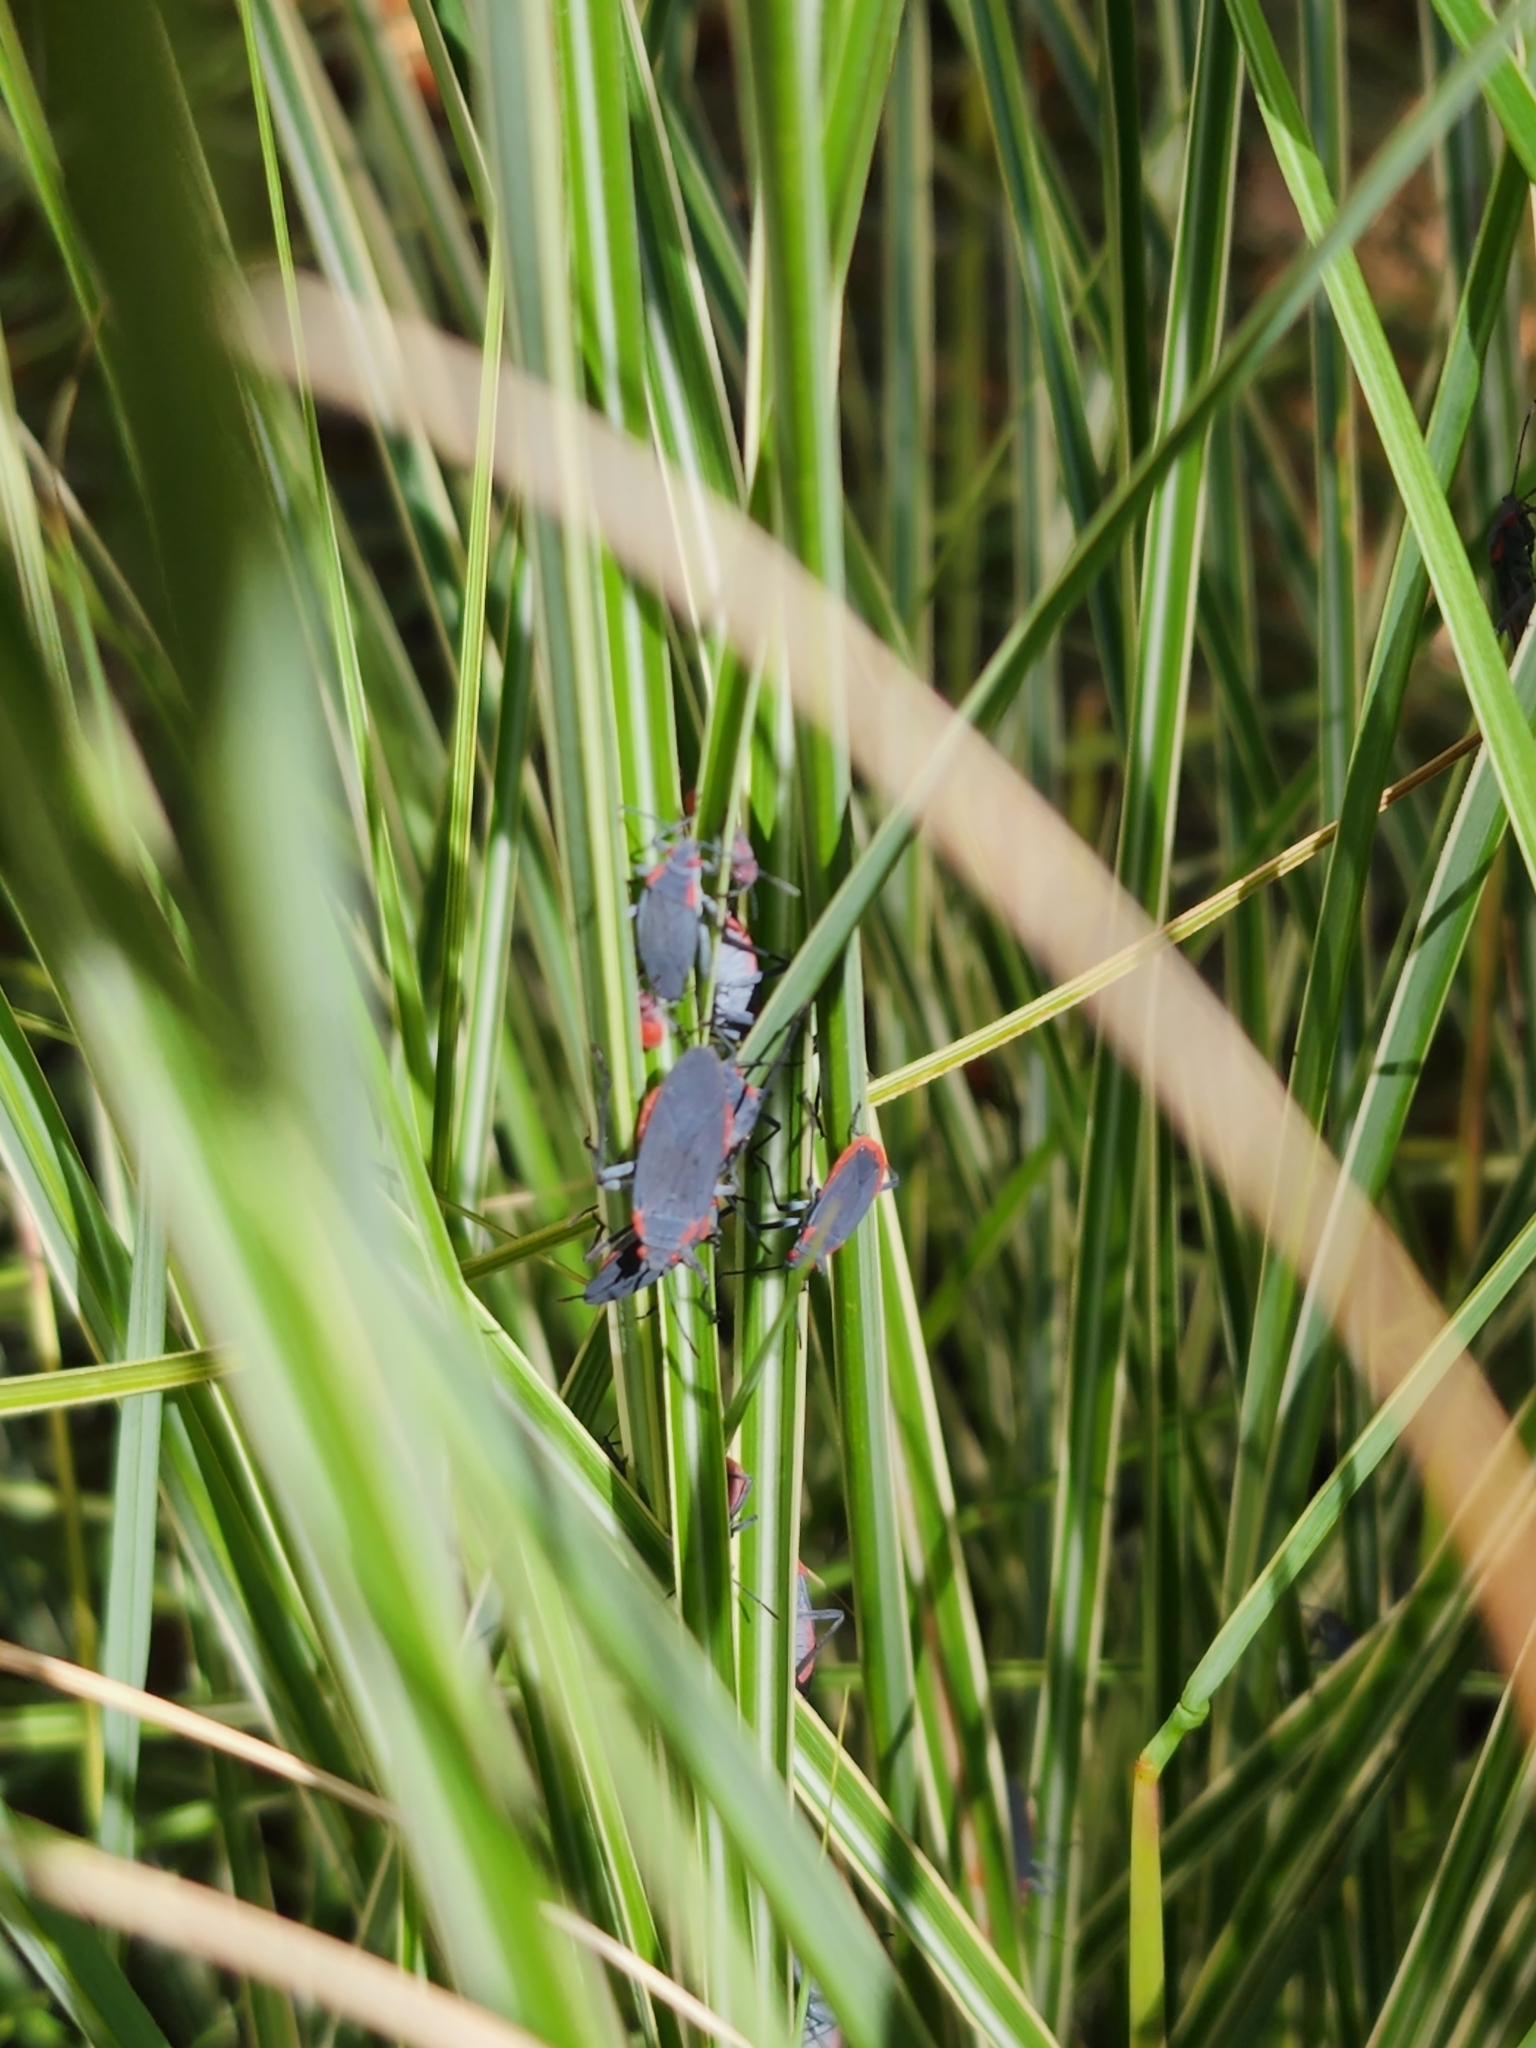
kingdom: Animalia
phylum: Arthropoda
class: Insecta
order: Hemiptera
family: Rhopalidae
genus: Jadera
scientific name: Jadera haematoloma
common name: Red-shouldered bug
